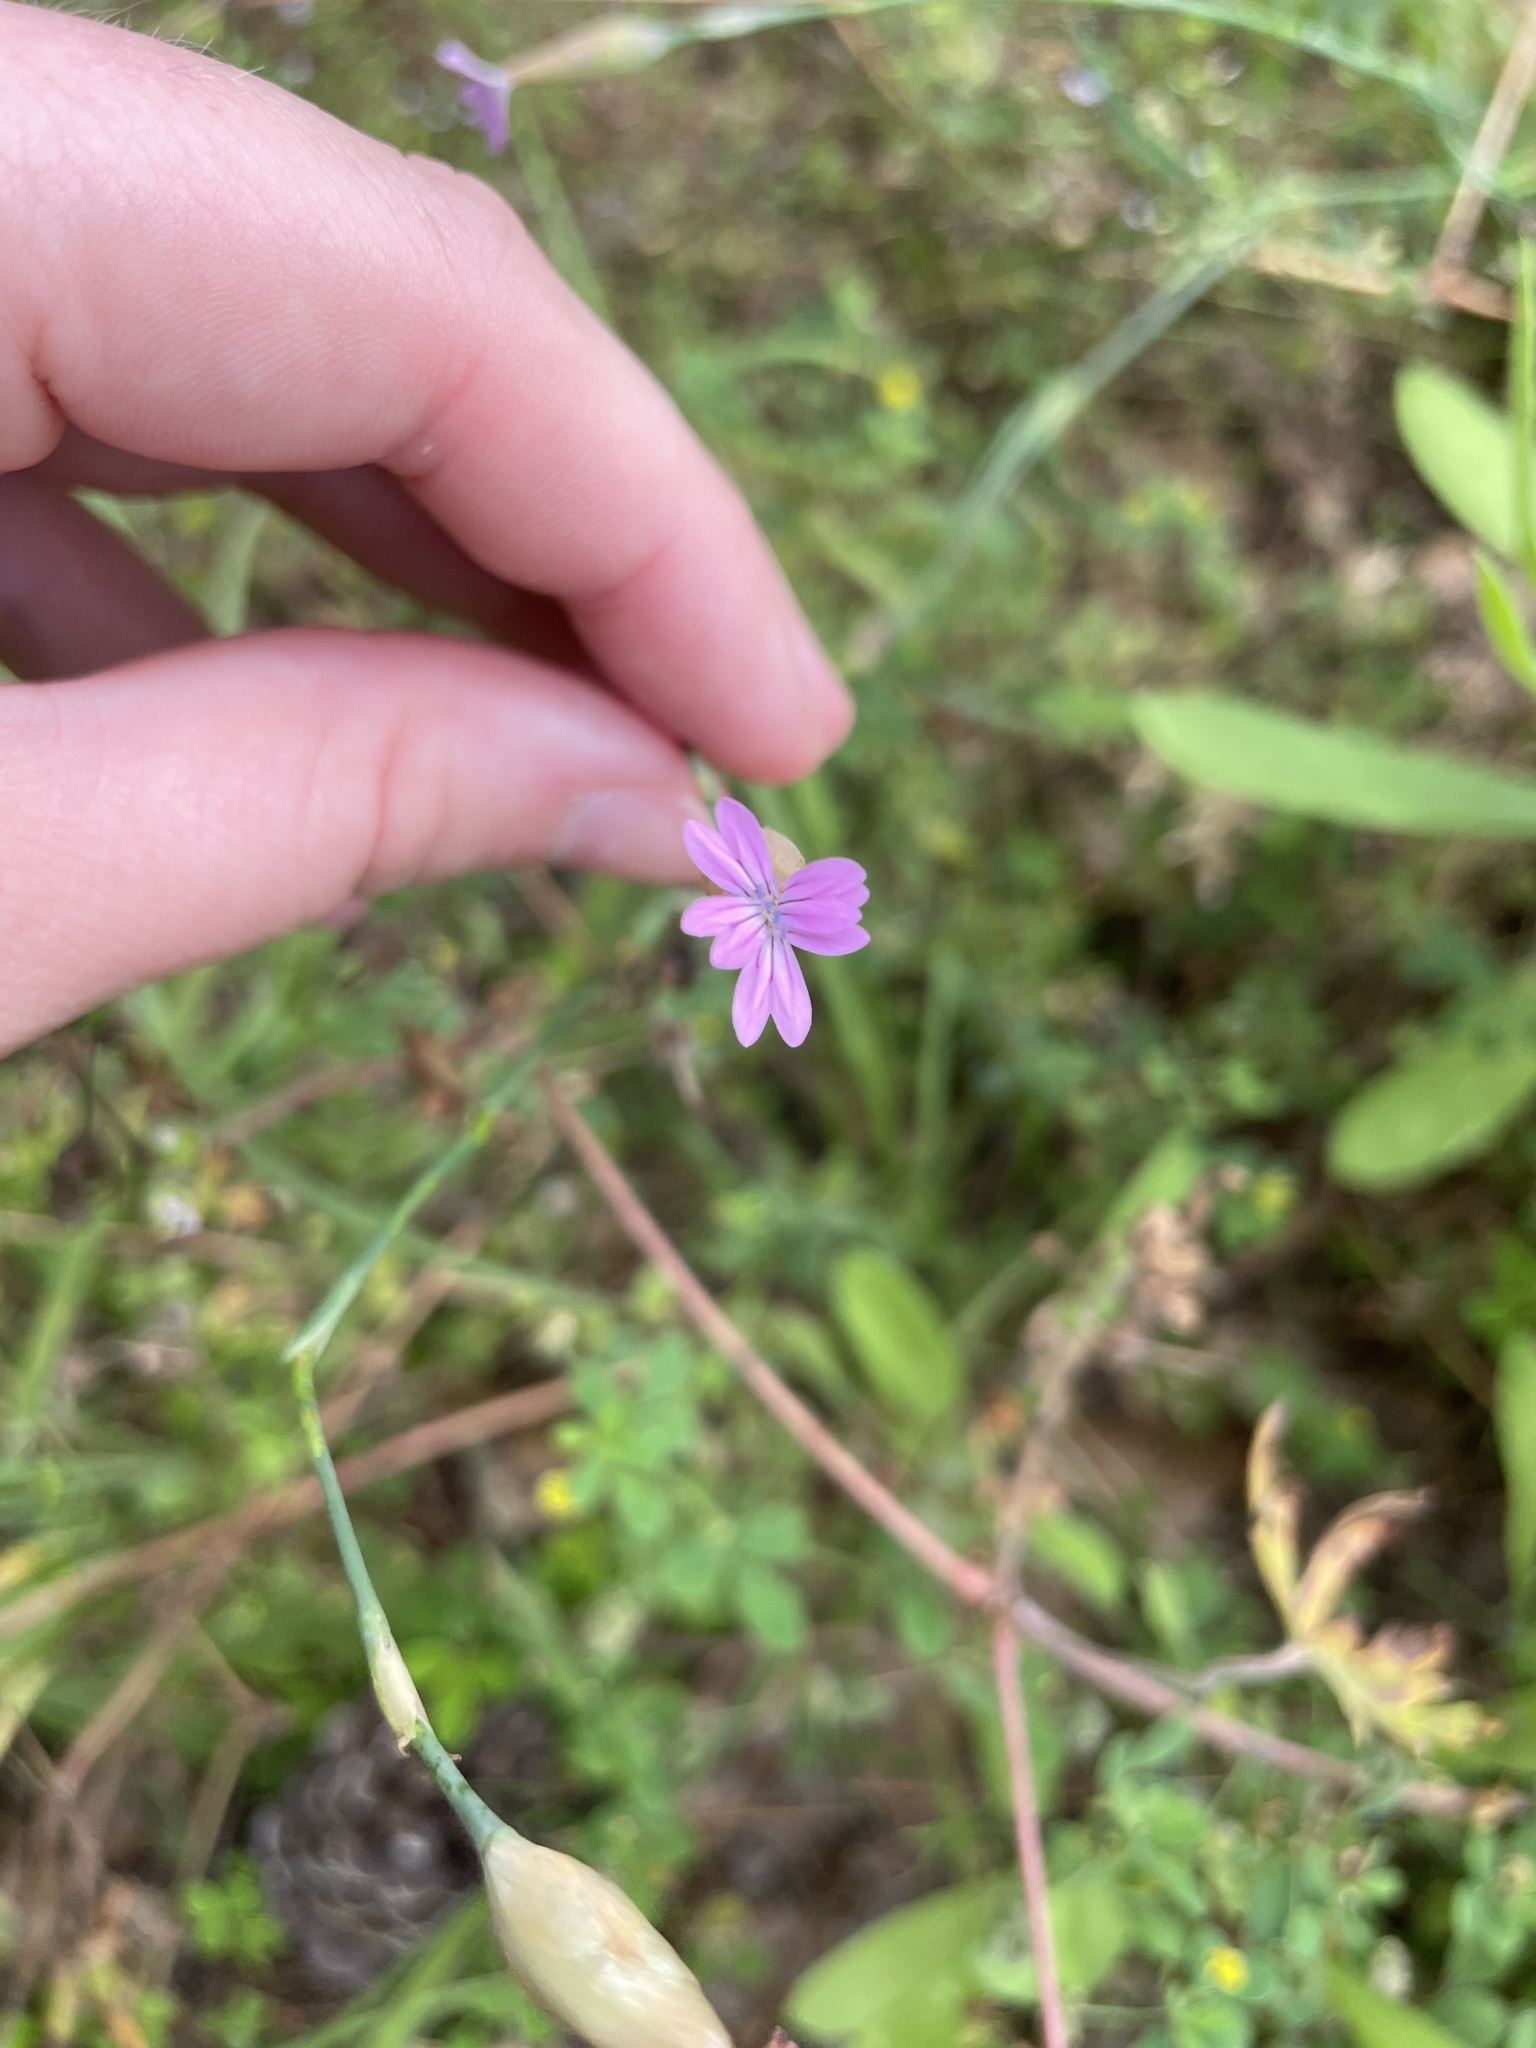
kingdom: Plantae
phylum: Tracheophyta
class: Magnoliopsida
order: Caryophyllales
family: Caryophyllaceae
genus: Petrorhagia
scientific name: Petrorhagia dubia
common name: Hairypink
